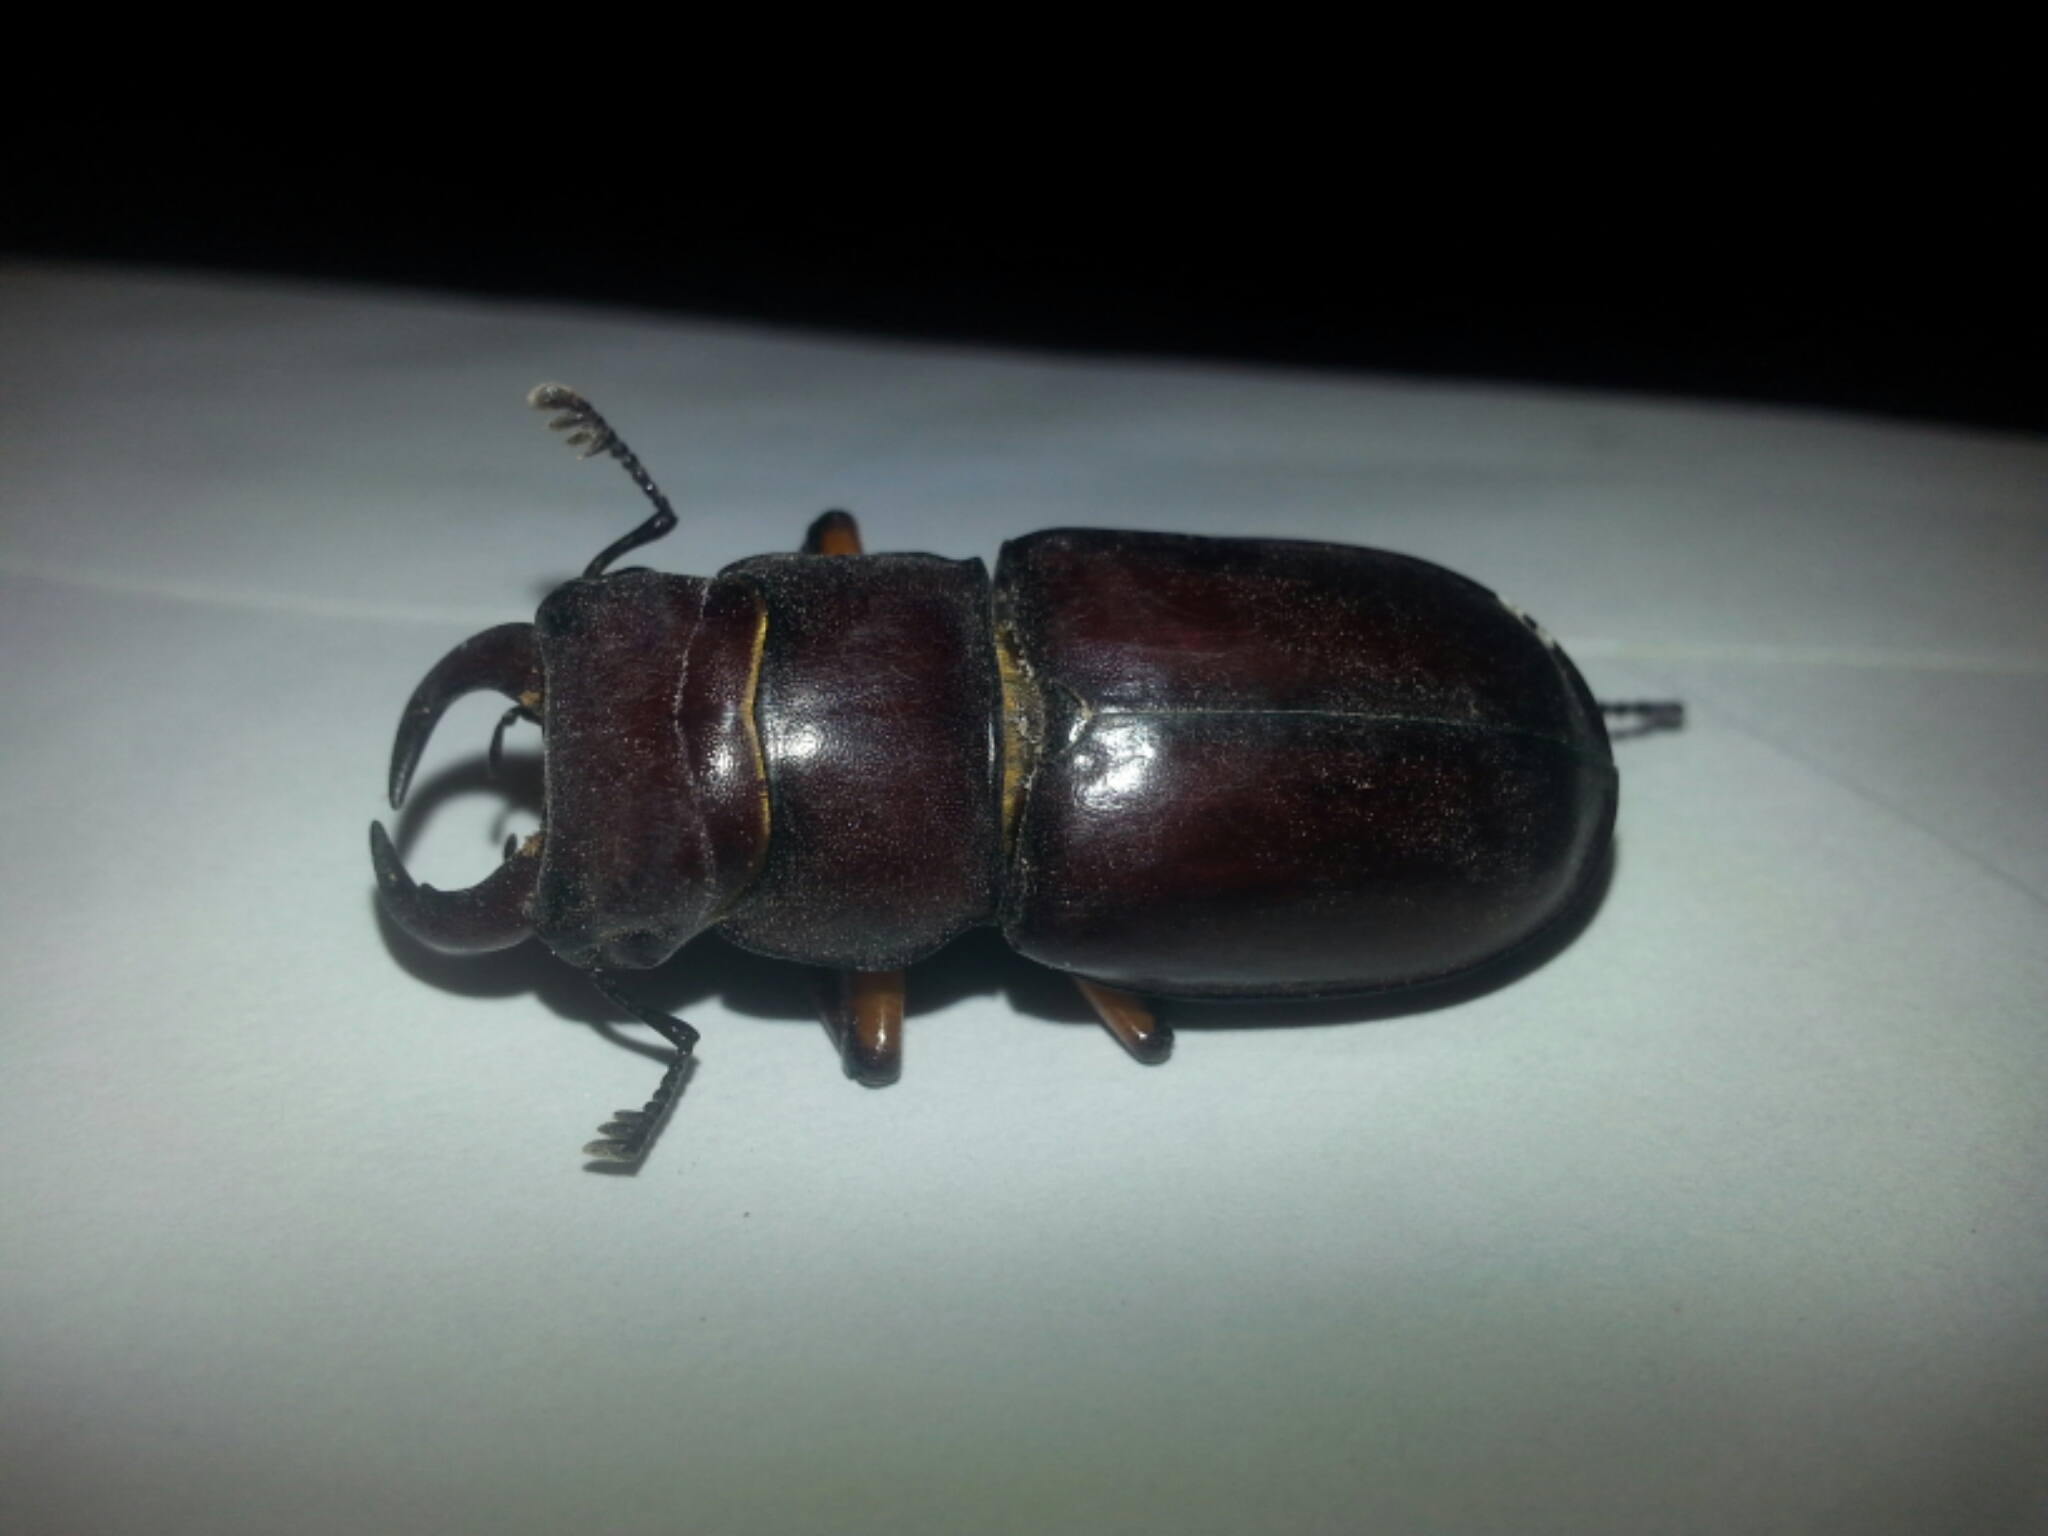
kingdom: Animalia
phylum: Arthropoda
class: Insecta
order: Coleoptera
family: Lucanidae
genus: Lucanus
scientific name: Lucanus capreolus
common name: Stag beetle
